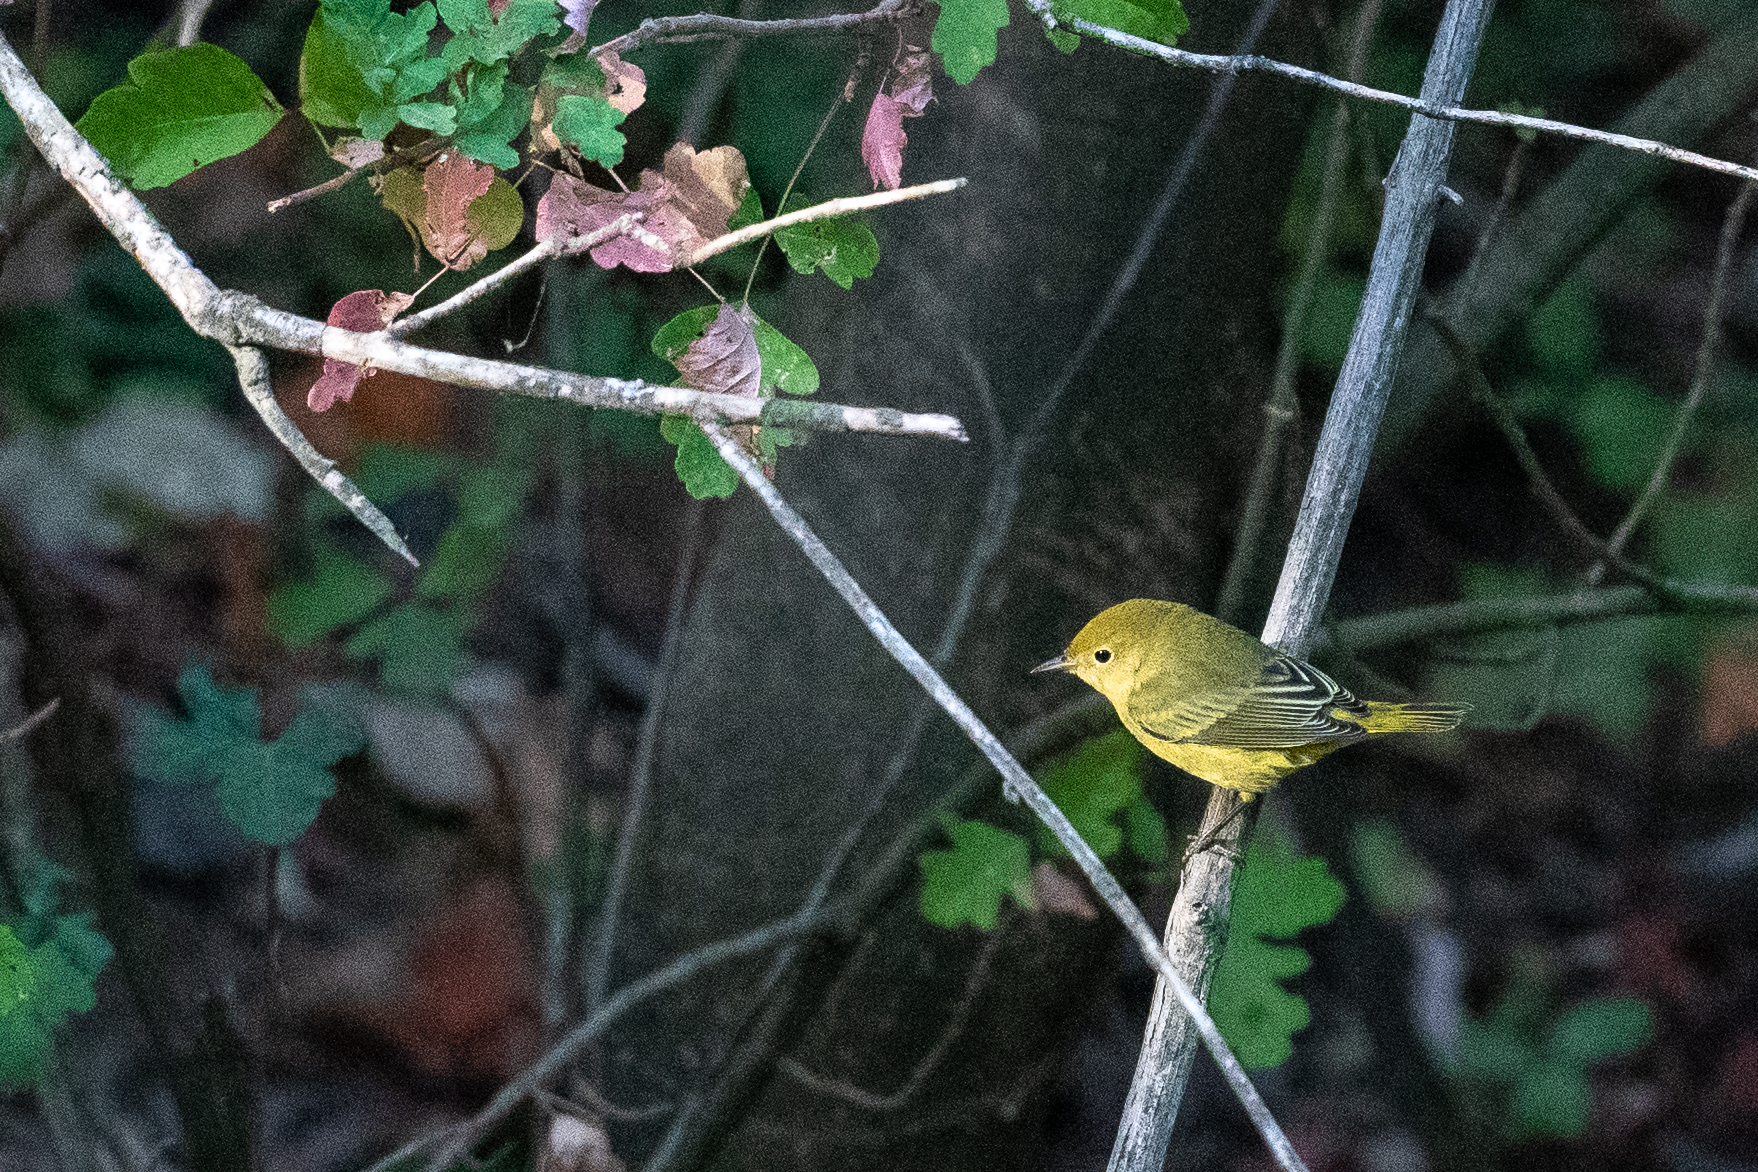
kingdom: Animalia
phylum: Chordata
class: Aves
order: Passeriformes
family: Parulidae
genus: Setophaga
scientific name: Setophaga petechia
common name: Yellow warbler
